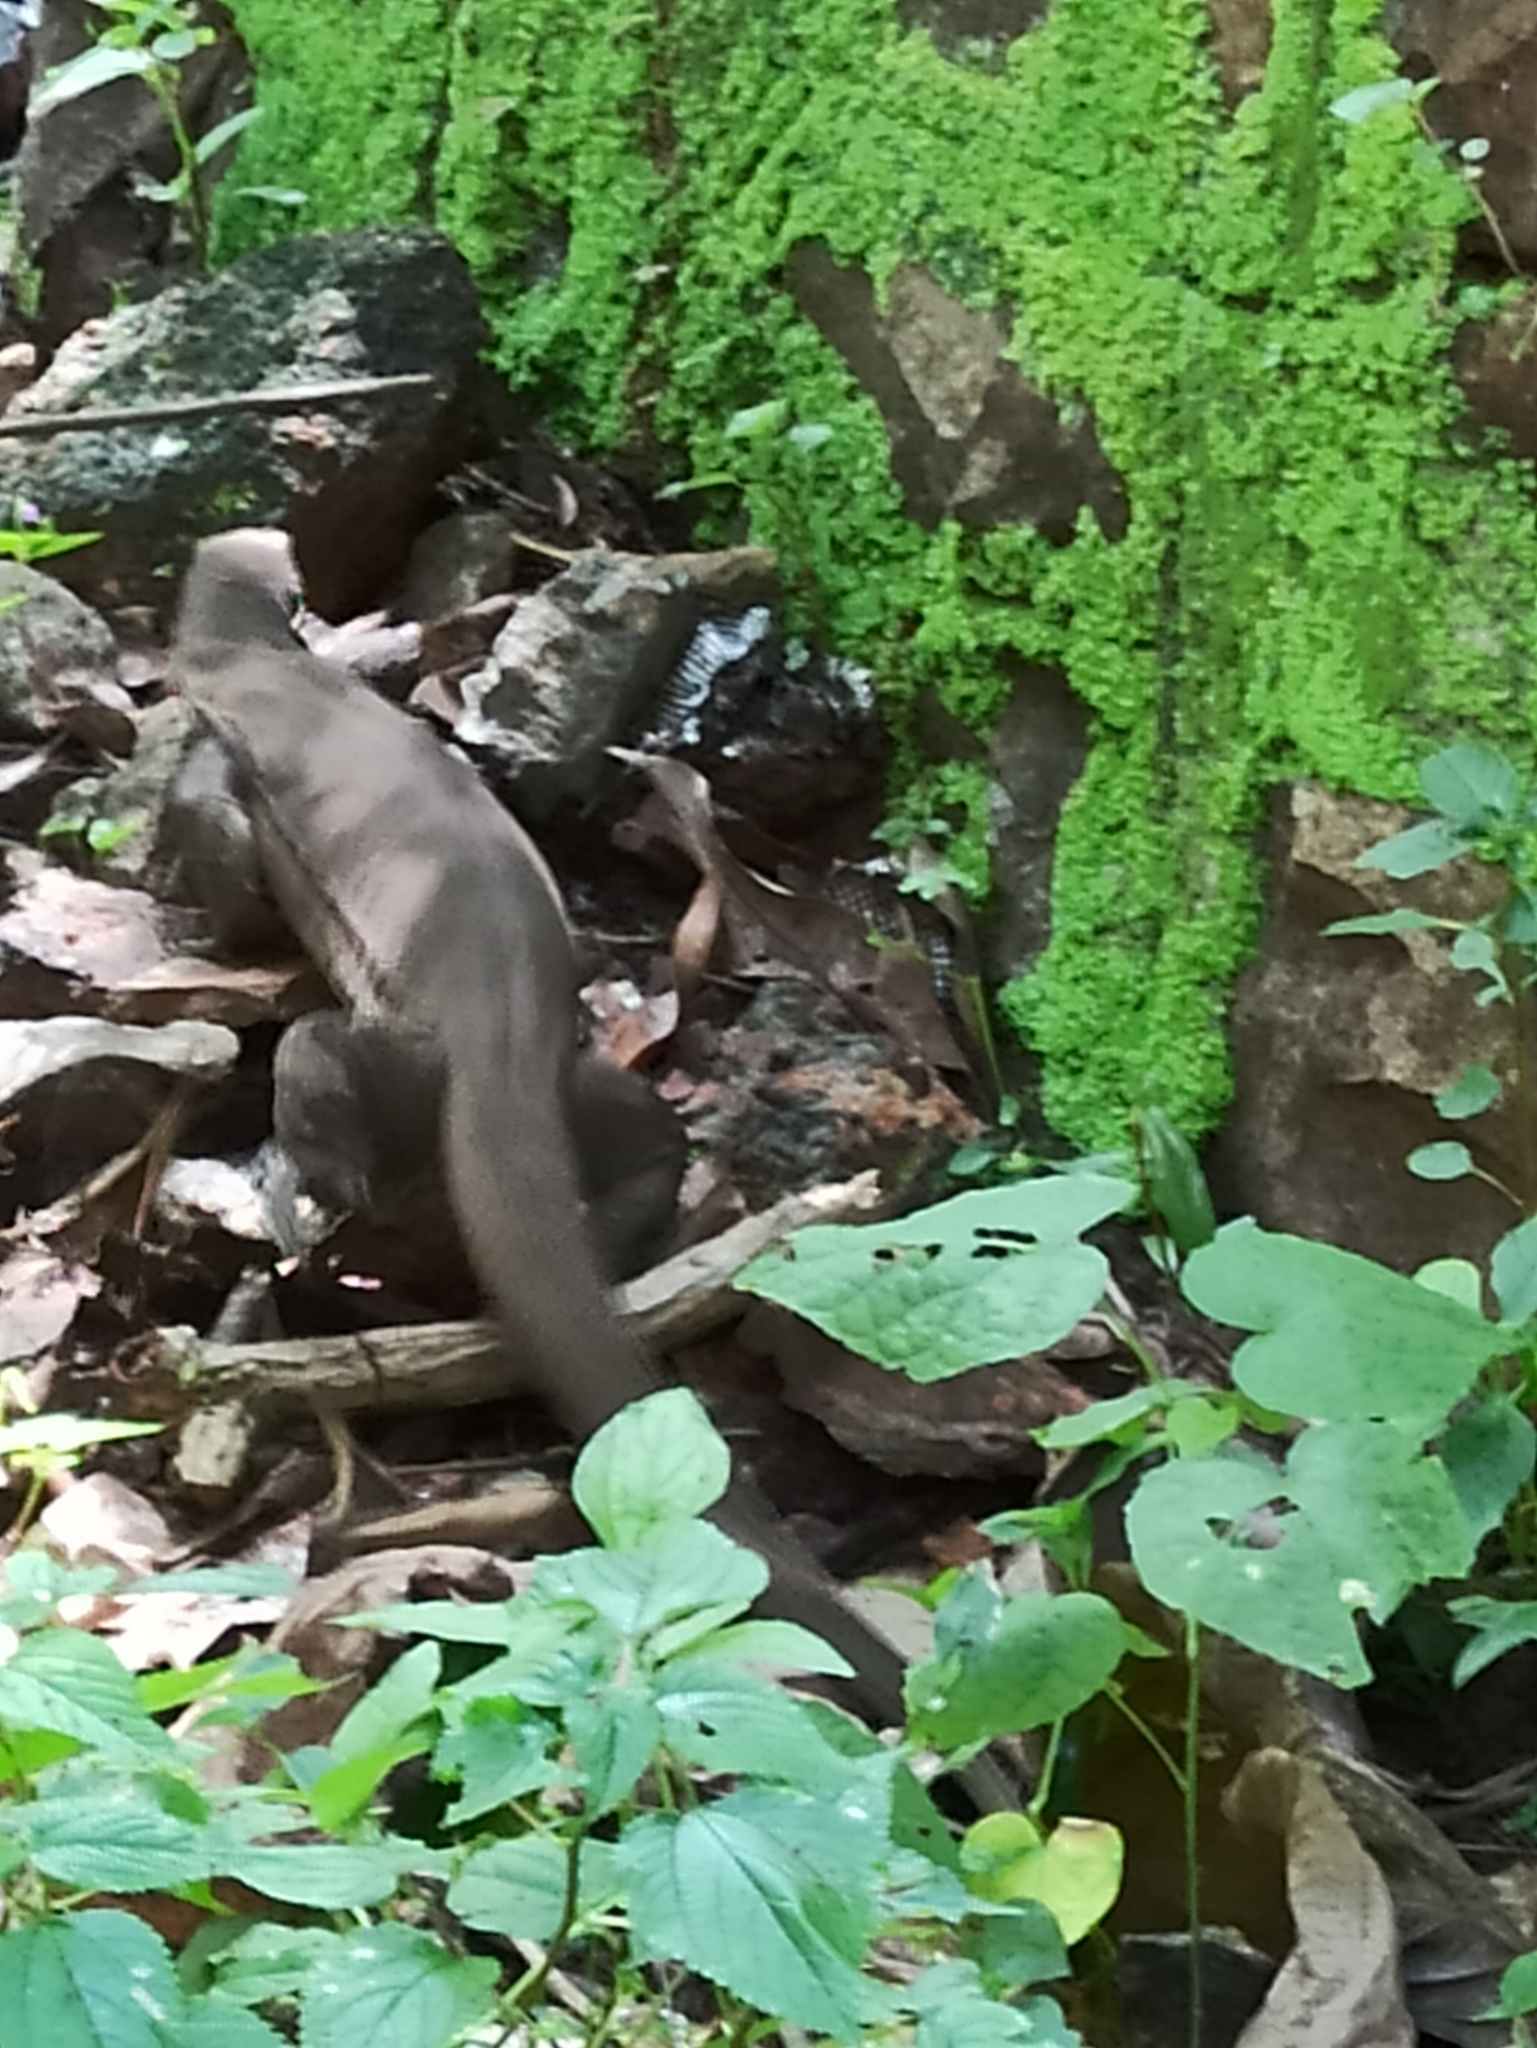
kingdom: Animalia
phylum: Chordata
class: Squamata
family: Varanidae
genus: Varanus
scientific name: Varanus bengalensis
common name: Bengal monitor
